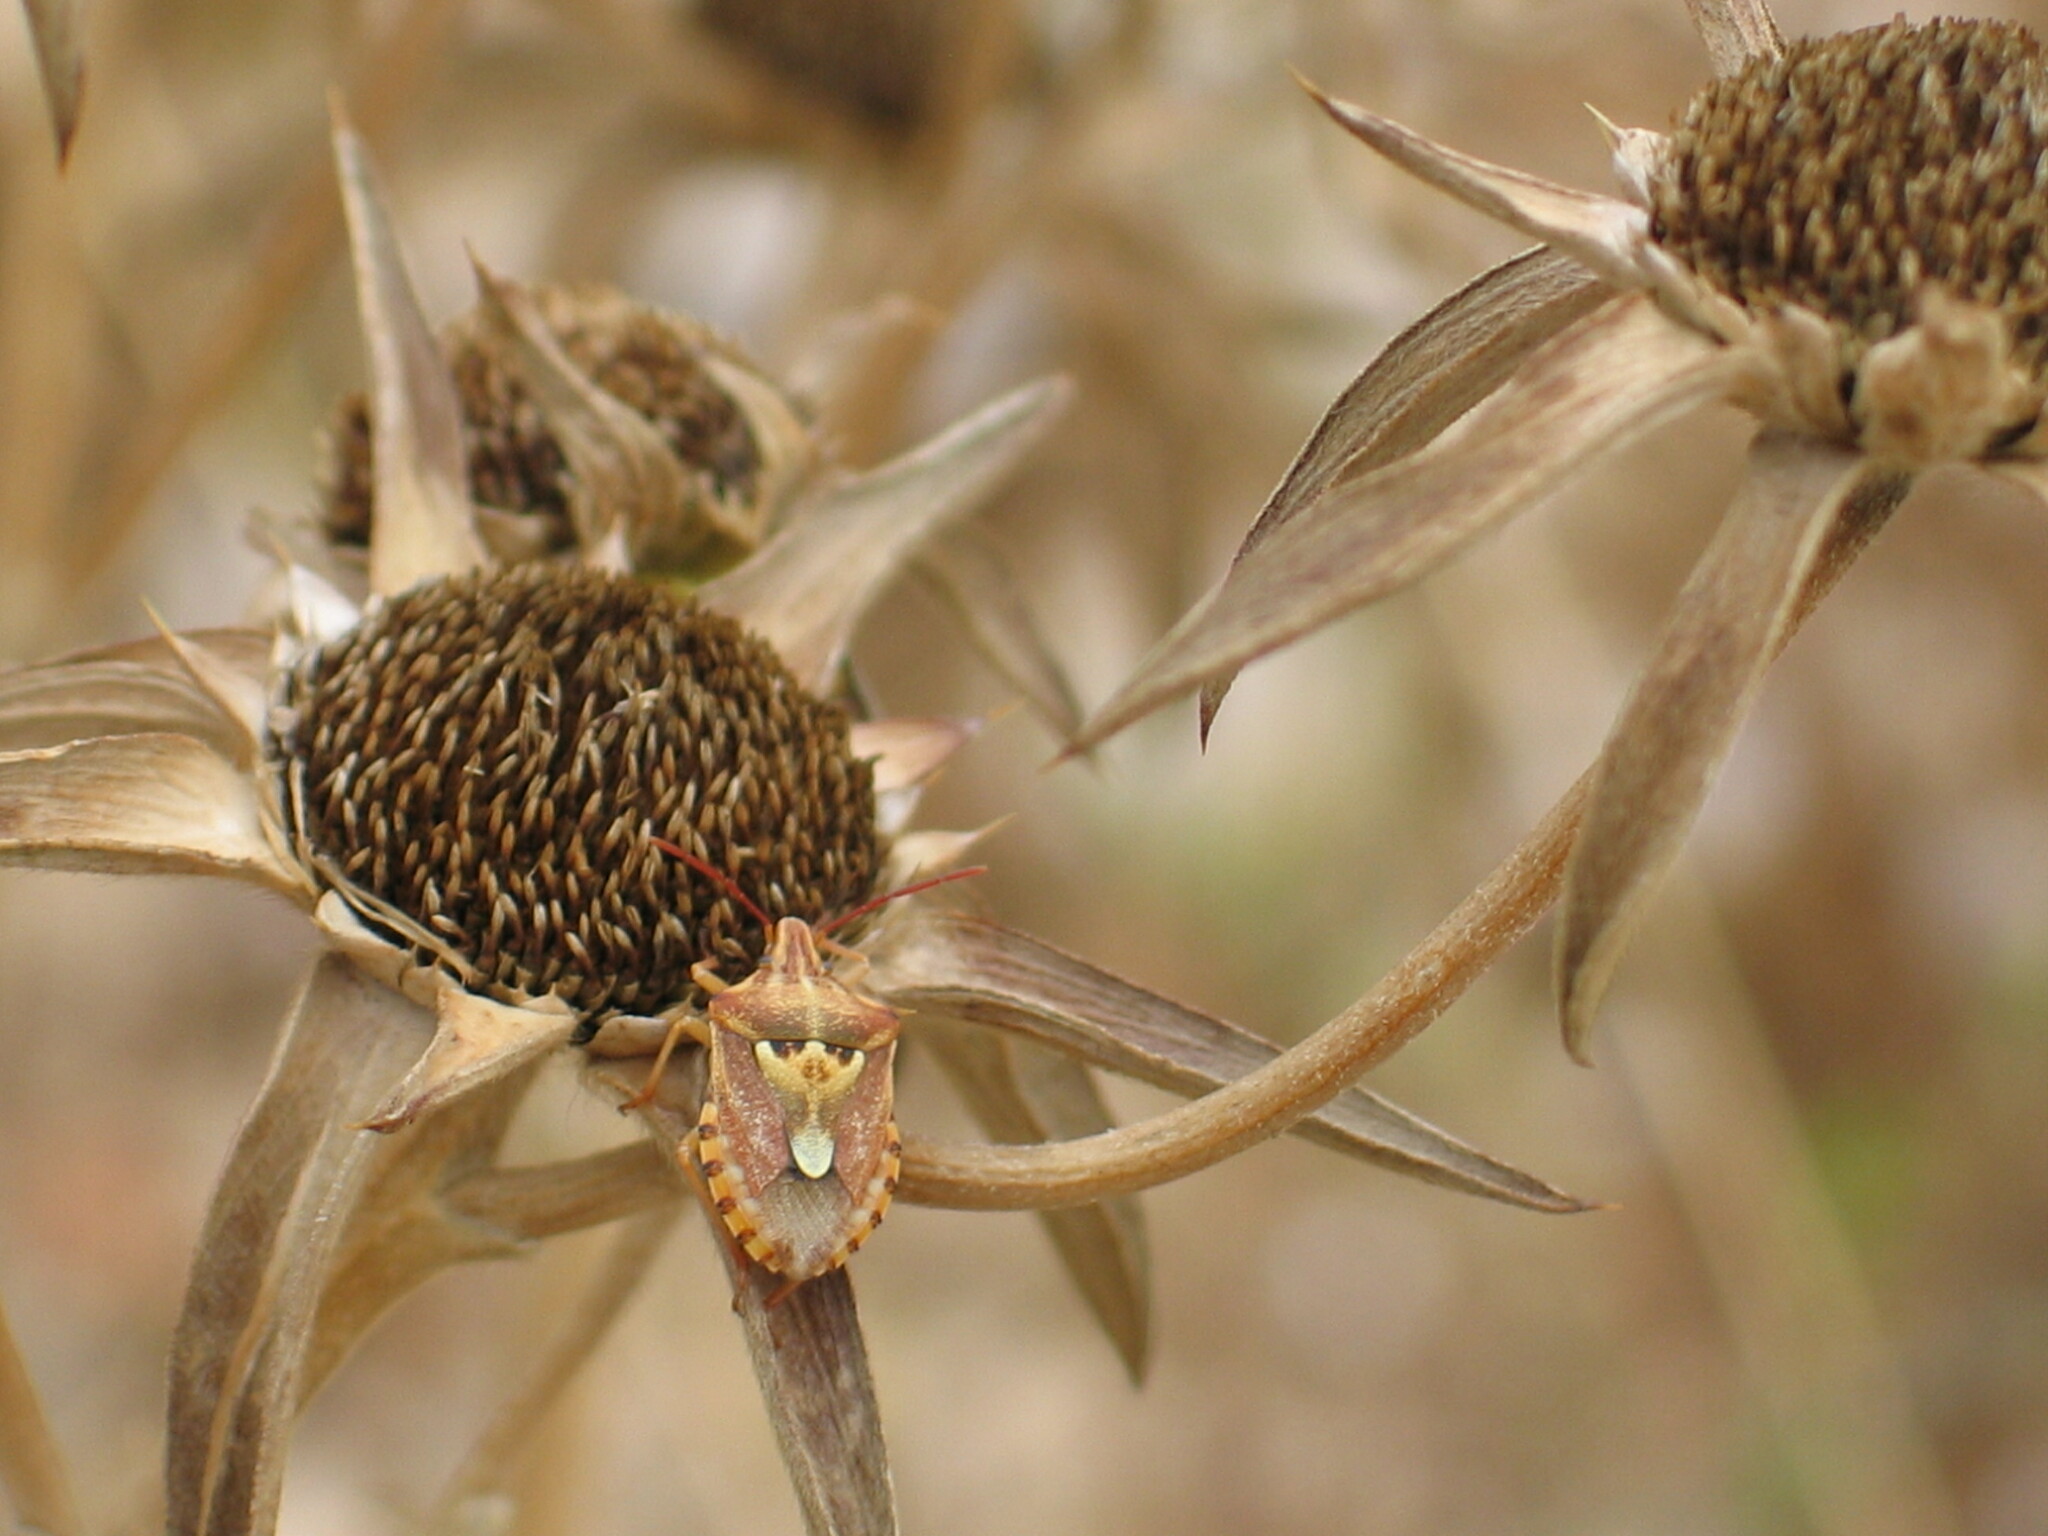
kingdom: Animalia
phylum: Arthropoda
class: Insecta
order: Hemiptera
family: Miridae
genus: Orthops
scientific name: Orthops kalmii
